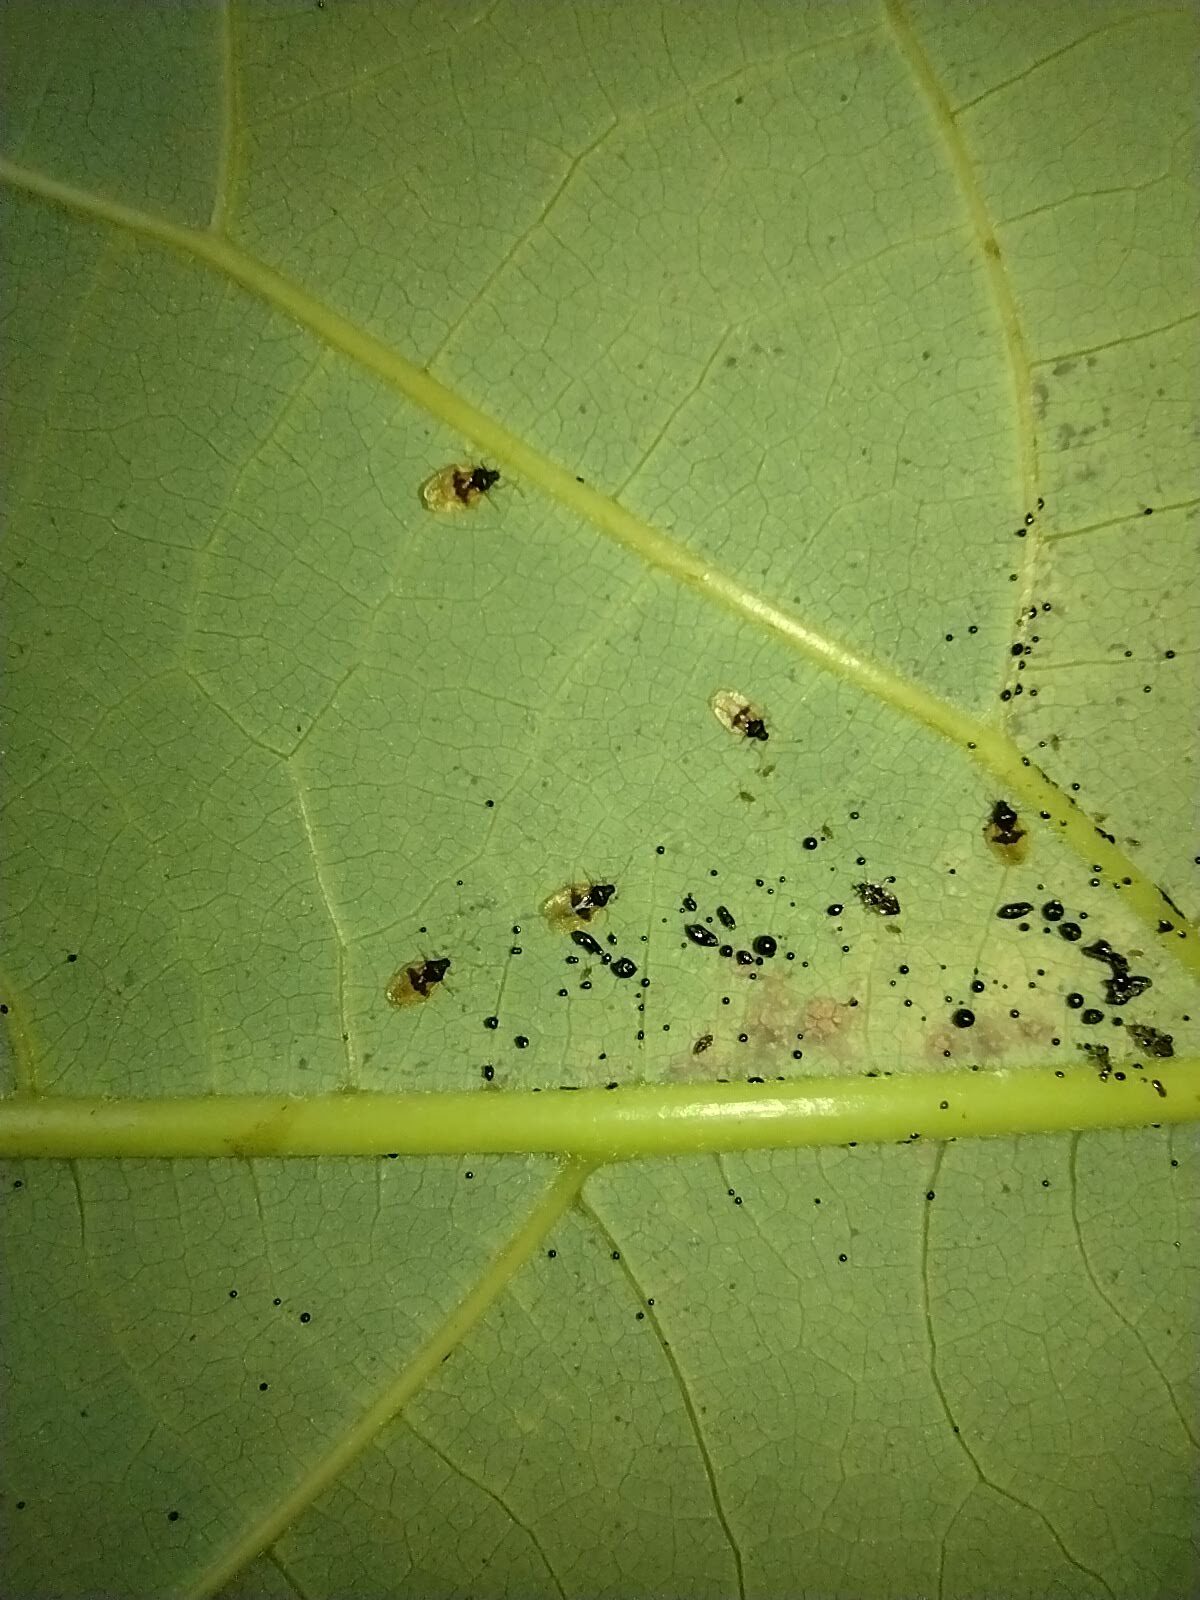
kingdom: Animalia
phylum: Arthropoda
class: Insecta
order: Hemiptera
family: Tingidae
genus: Pseudacysta
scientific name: Pseudacysta perseae
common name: Avocado lace bug
